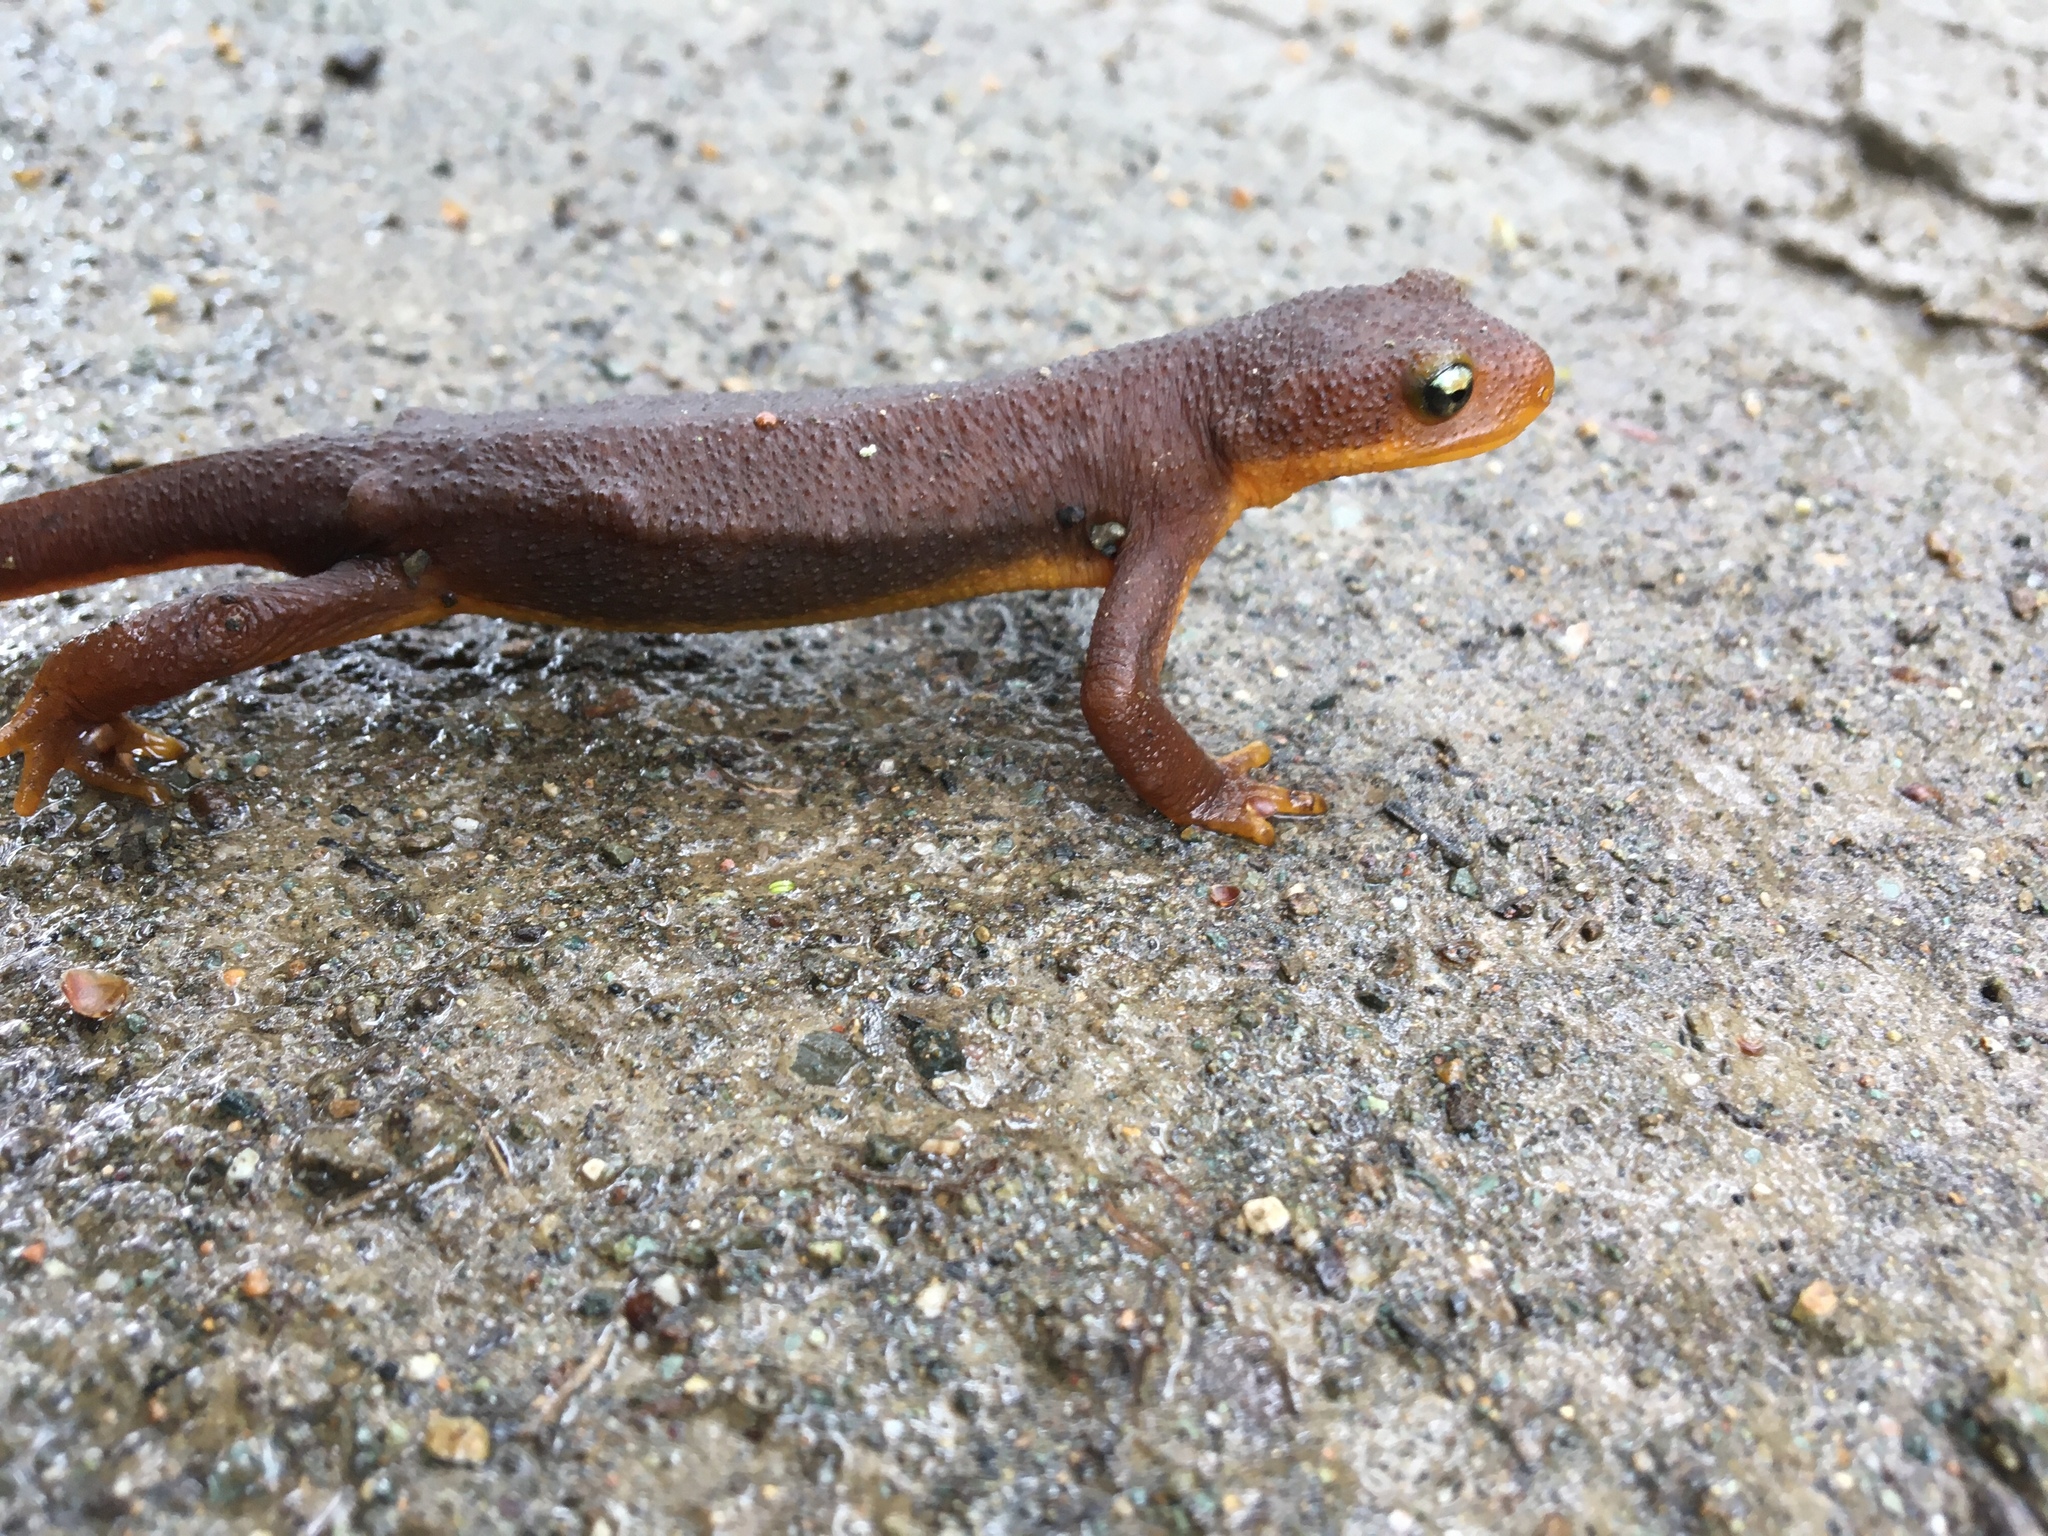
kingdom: Animalia
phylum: Chordata
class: Amphibia
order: Caudata
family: Salamandridae
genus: Taricha
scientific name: Taricha torosa
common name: California newt
